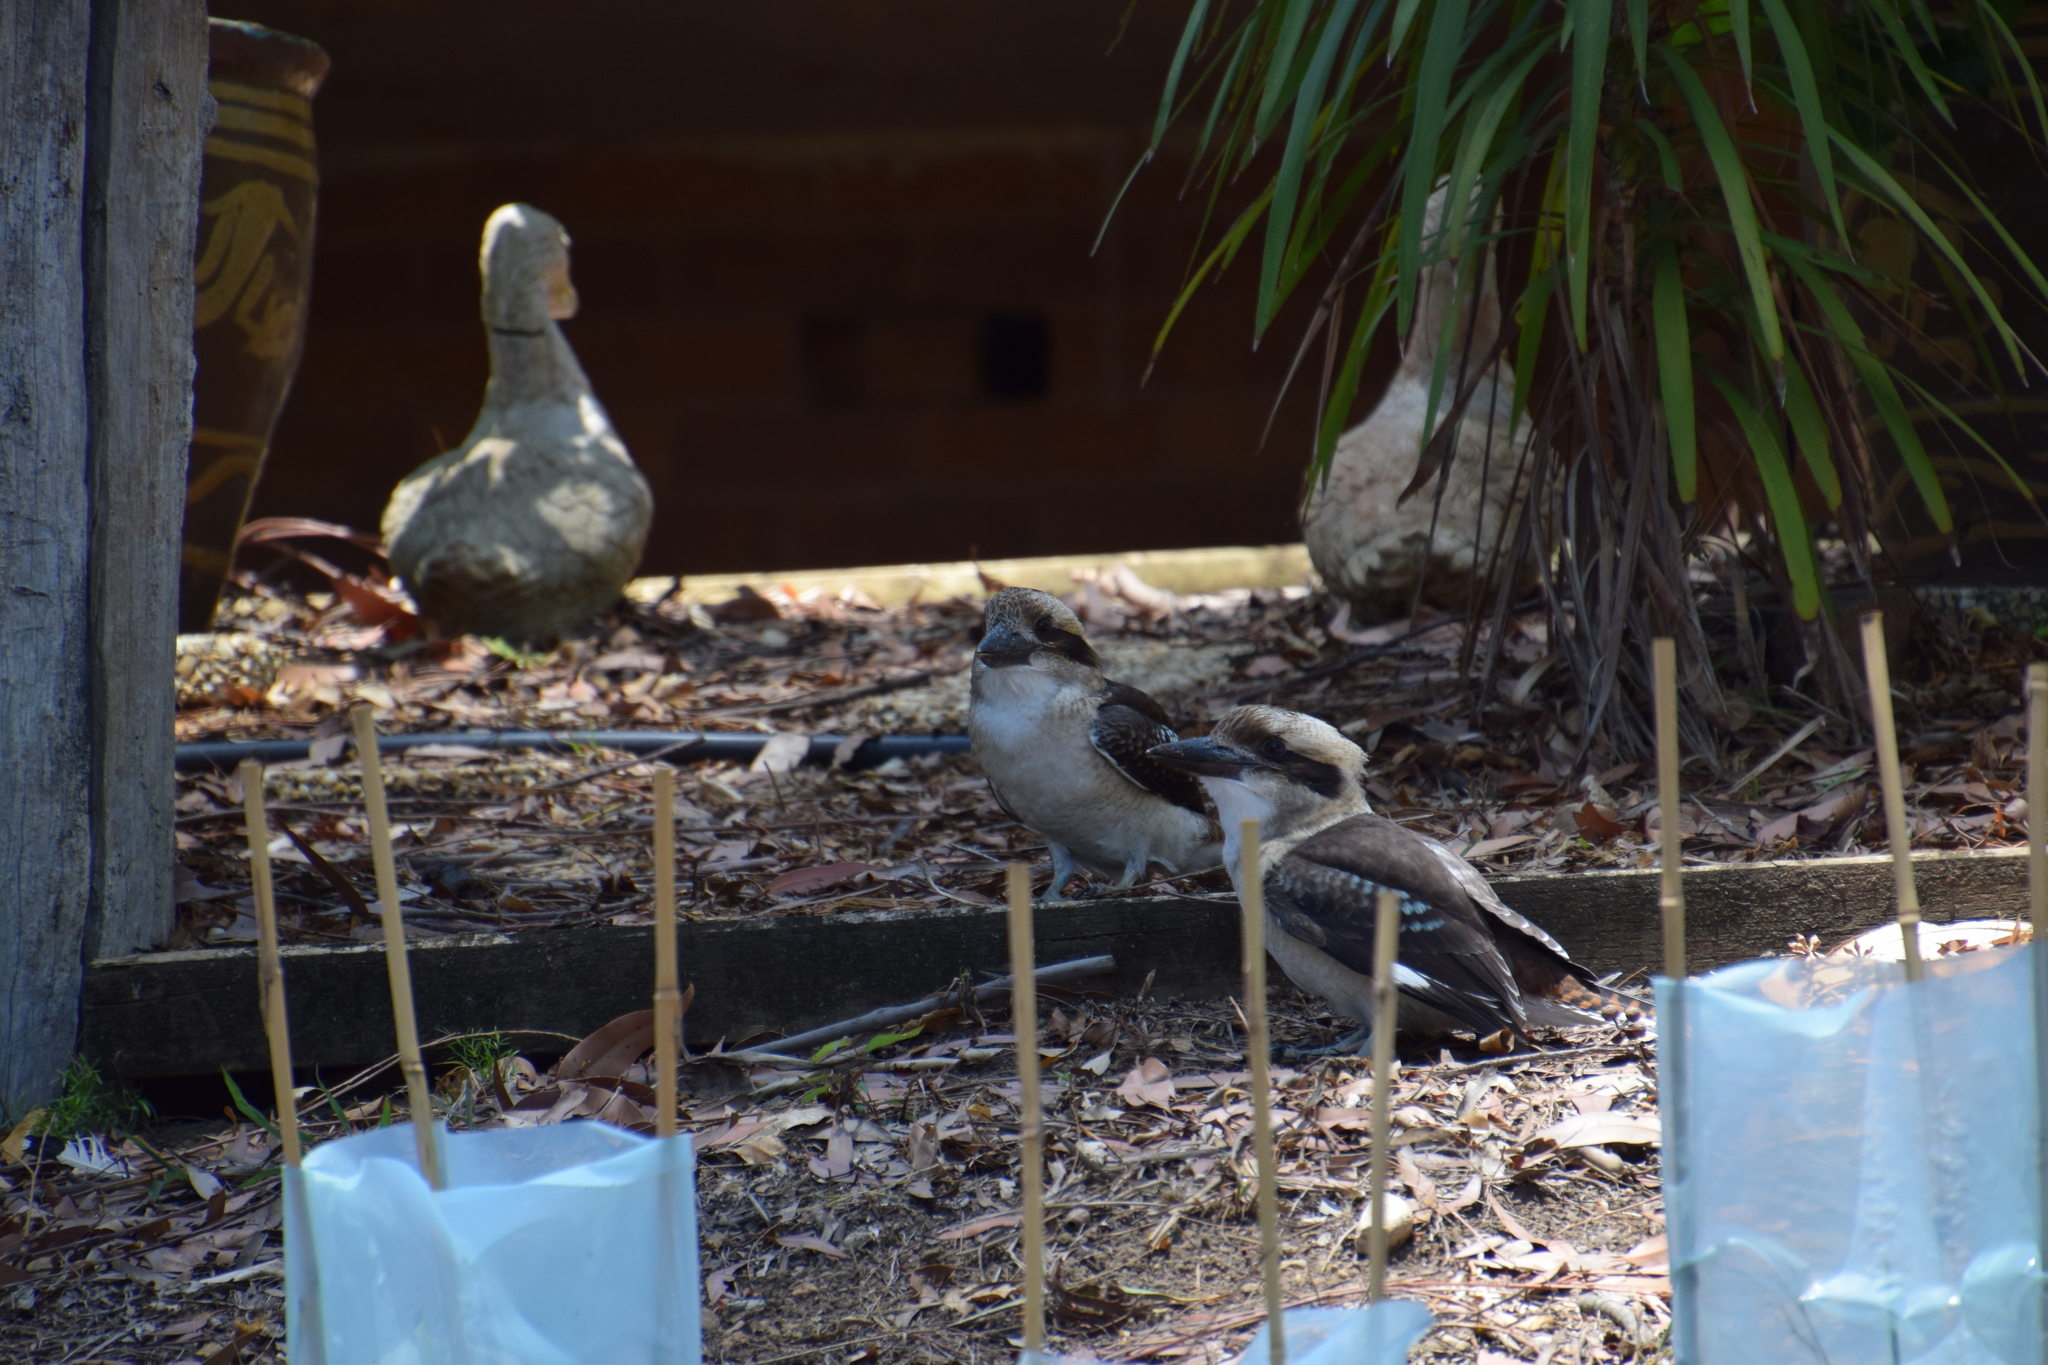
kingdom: Animalia
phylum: Chordata
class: Aves
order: Coraciiformes
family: Alcedinidae
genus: Dacelo
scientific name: Dacelo novaeguineae
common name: Laughing kookaburra
